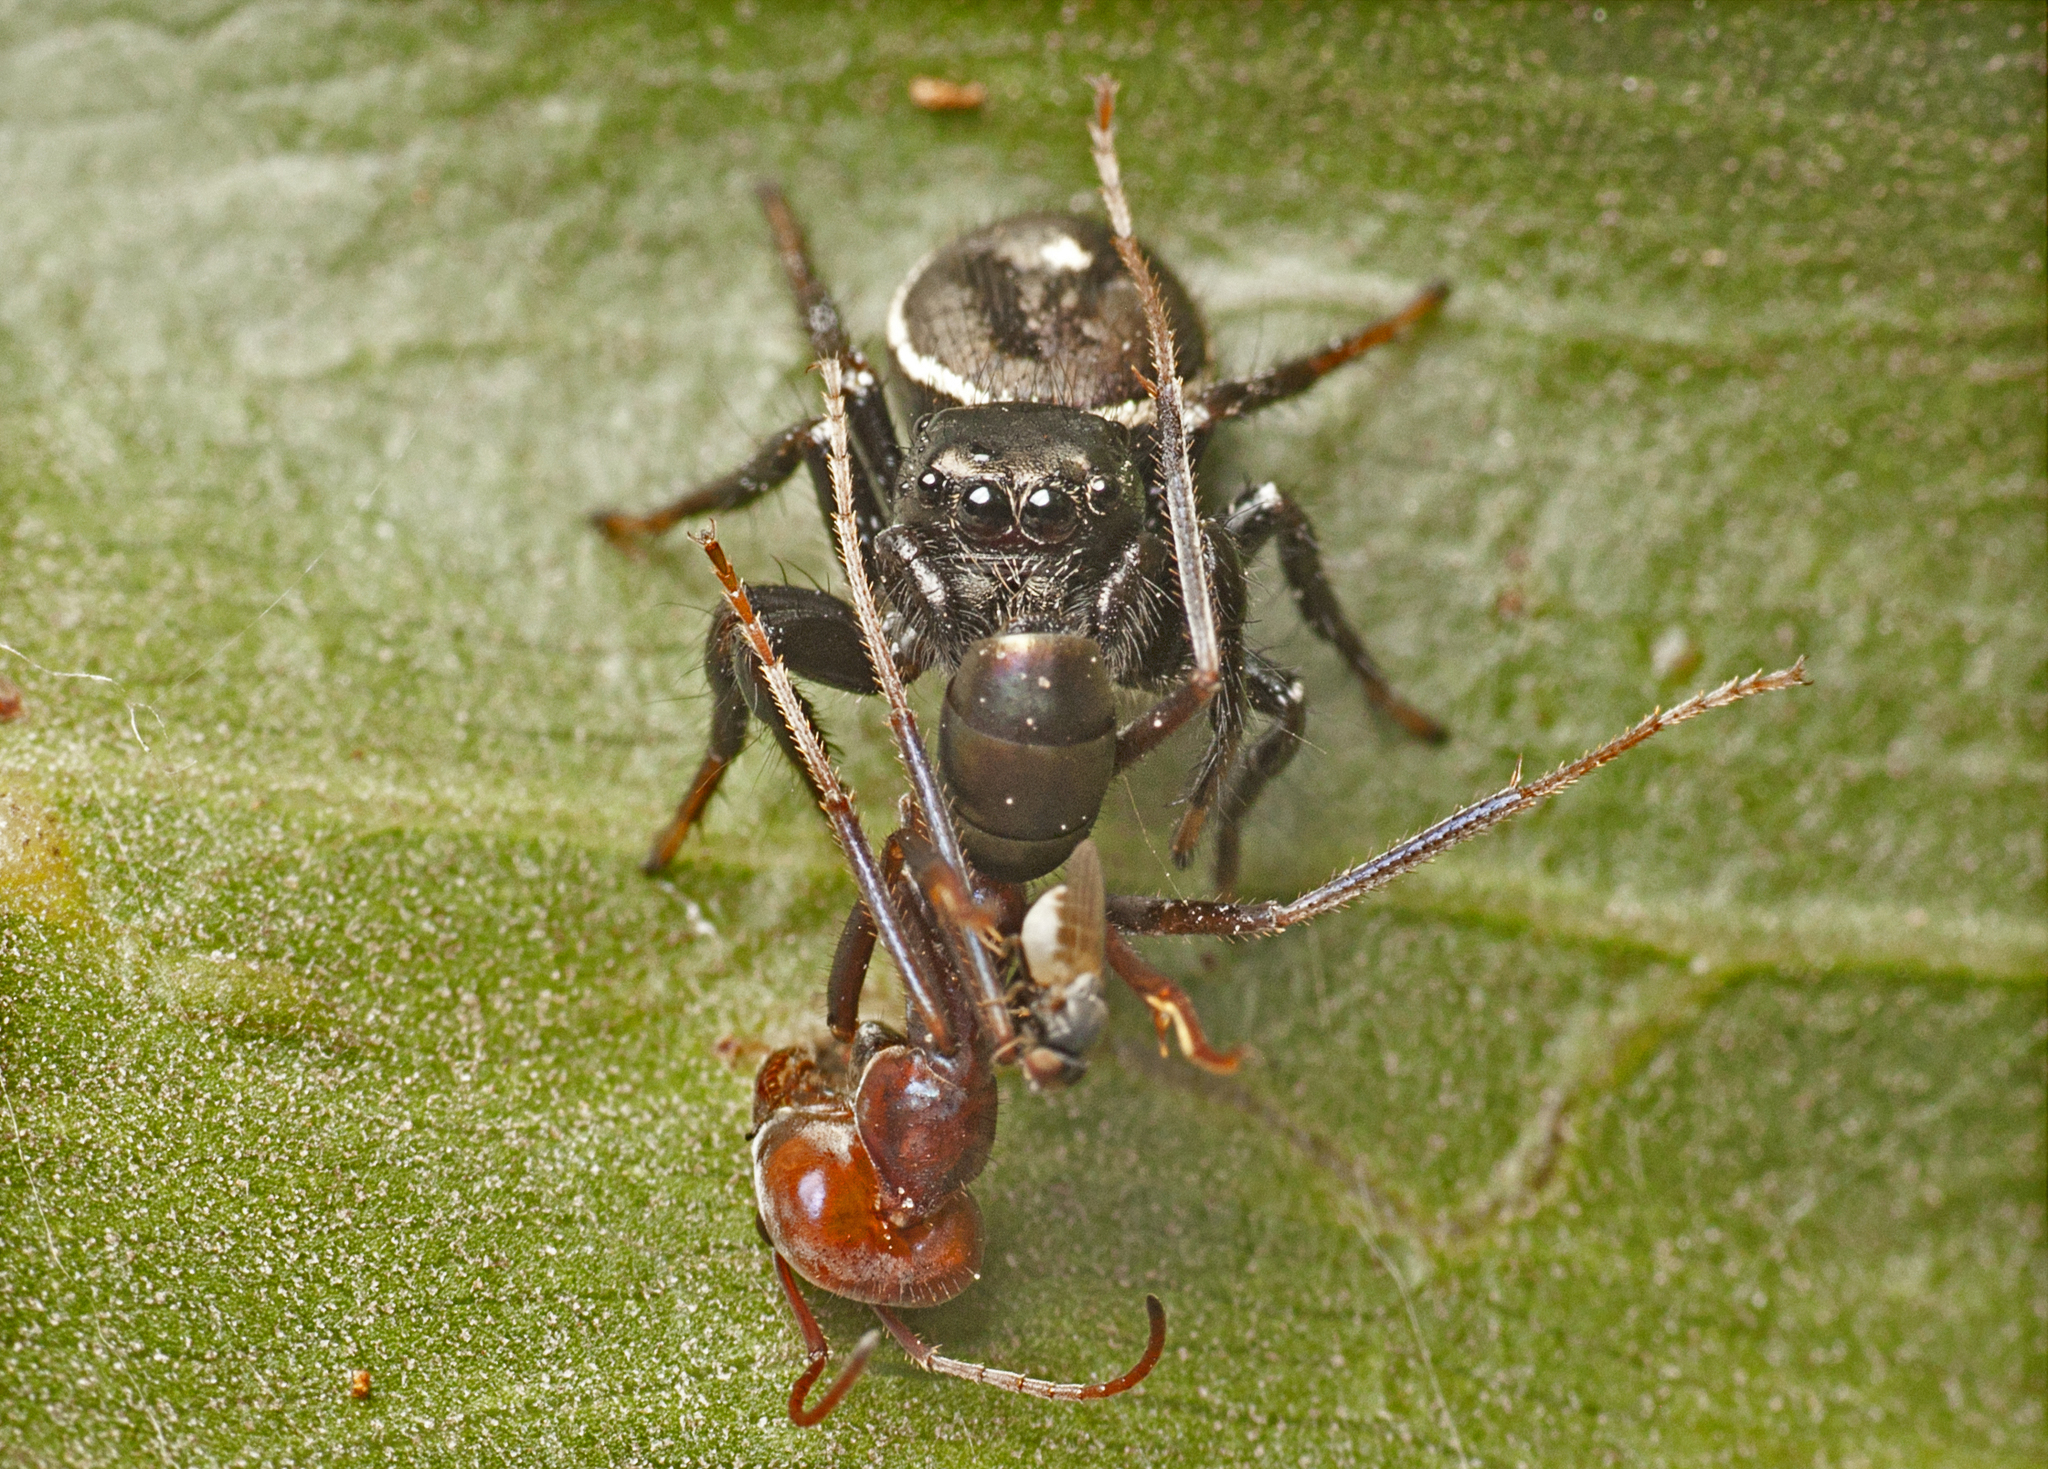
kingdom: Animalia
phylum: Arthropoda
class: Arachnida
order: Araneae
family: Salticidae
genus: Zenodorus
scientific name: Zenodorus orbiculatus
